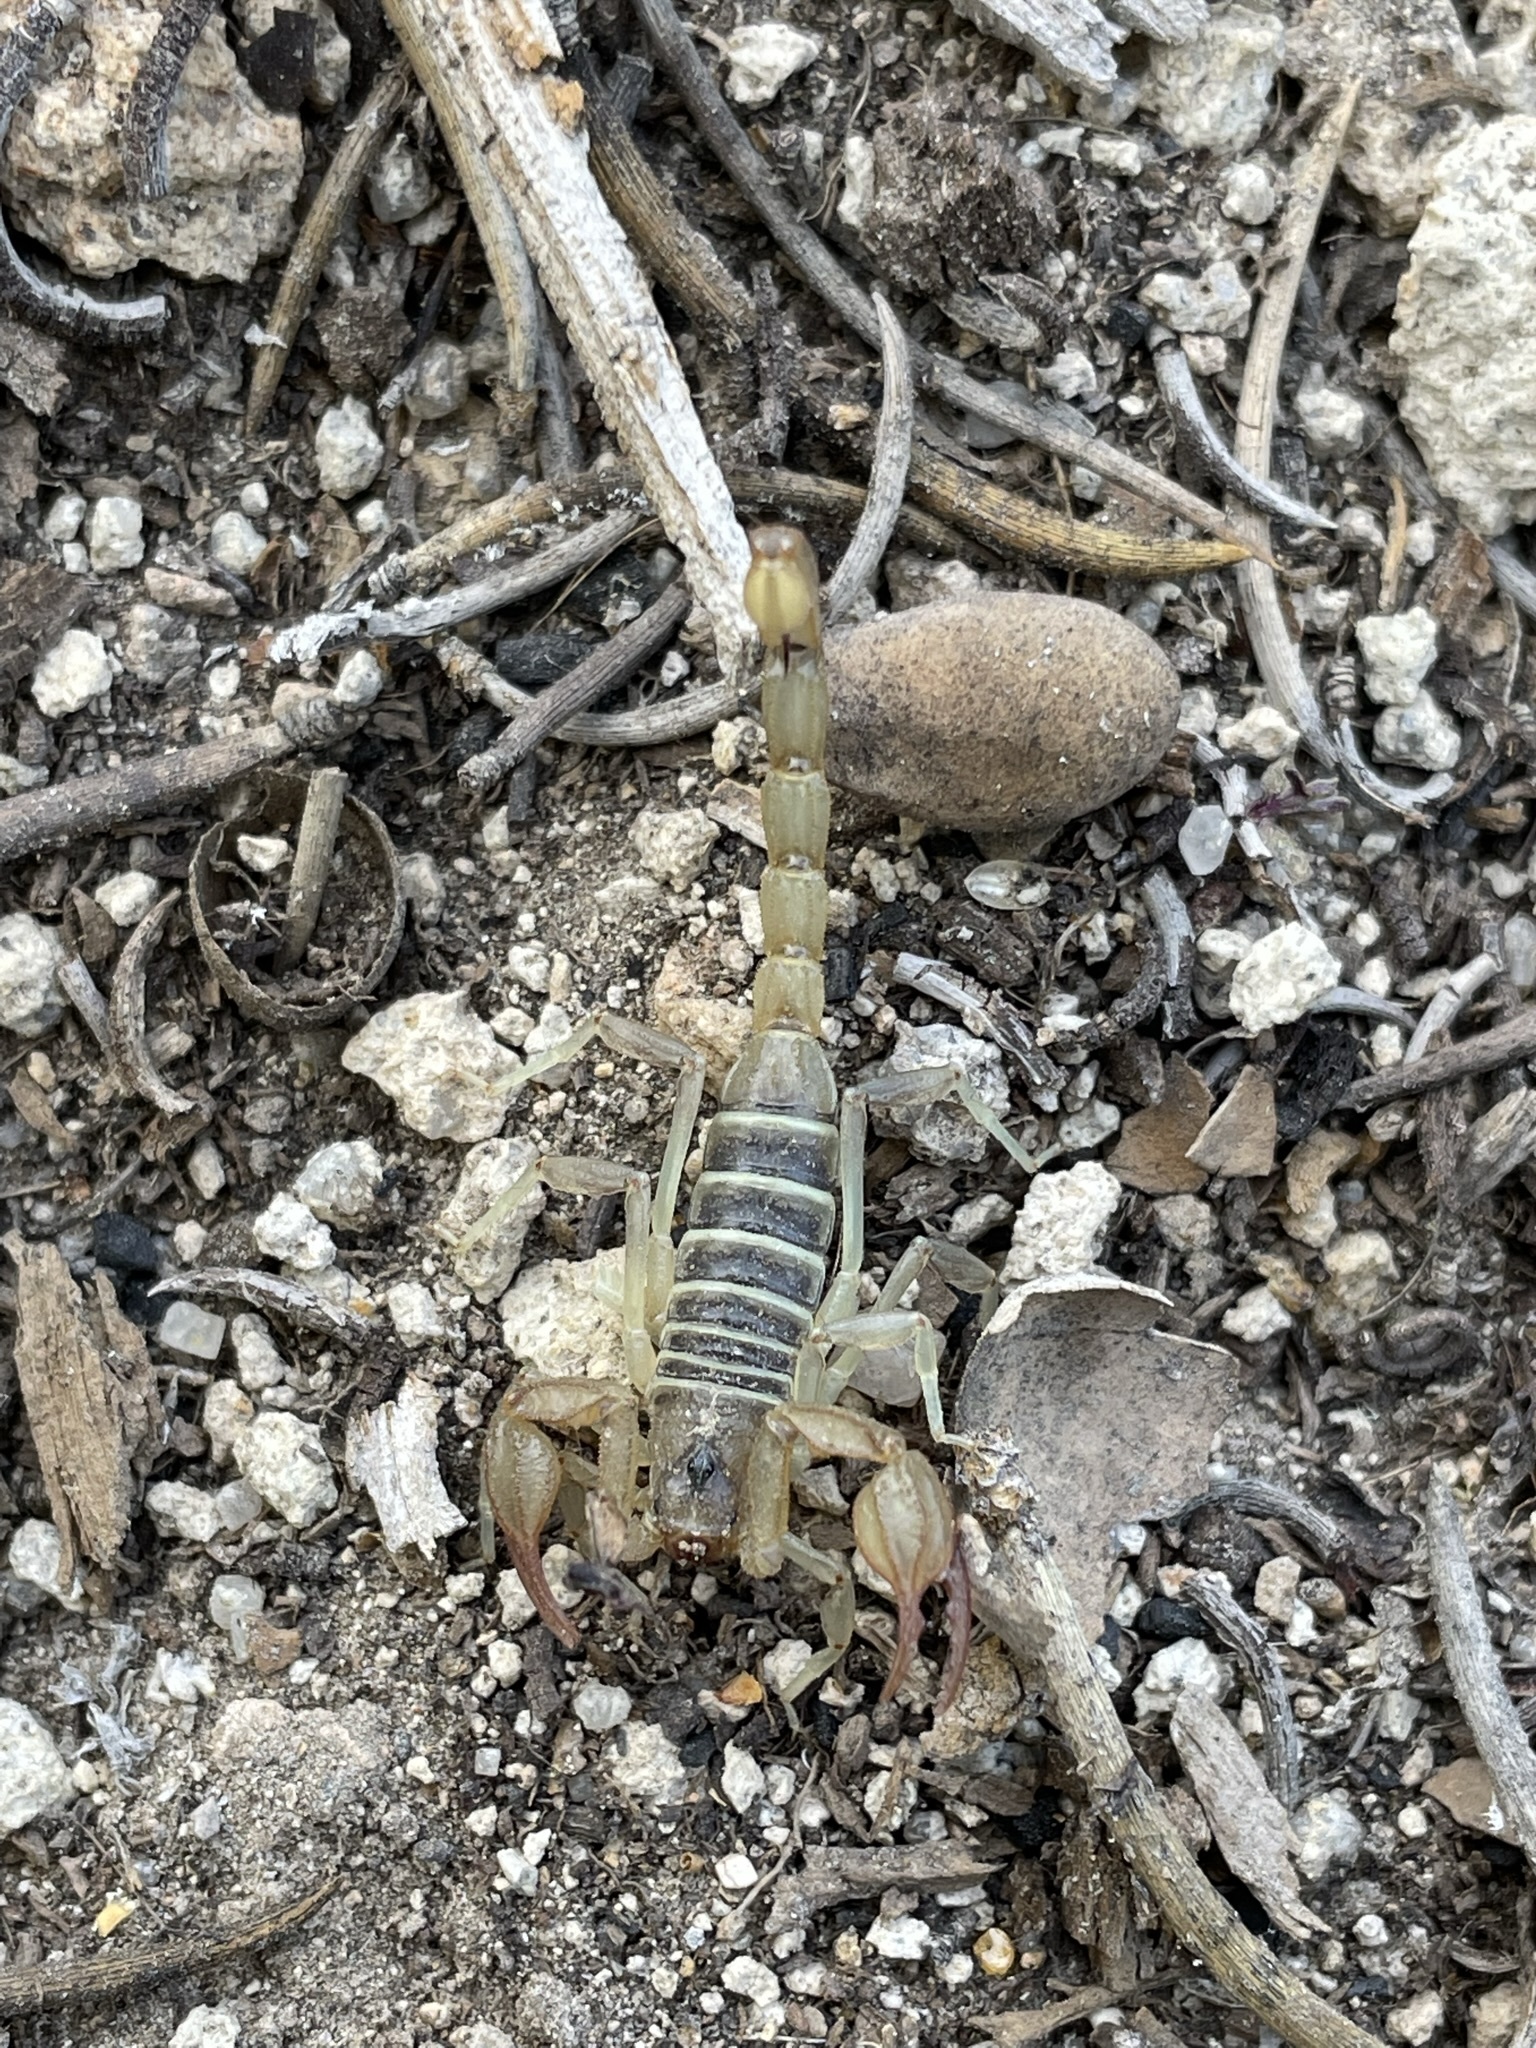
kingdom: Animalia
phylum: Arthropoda
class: Arachnida
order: Scorpiones
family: Vaejovidae
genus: Paruroctonus
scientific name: Paruroctonus boreus
